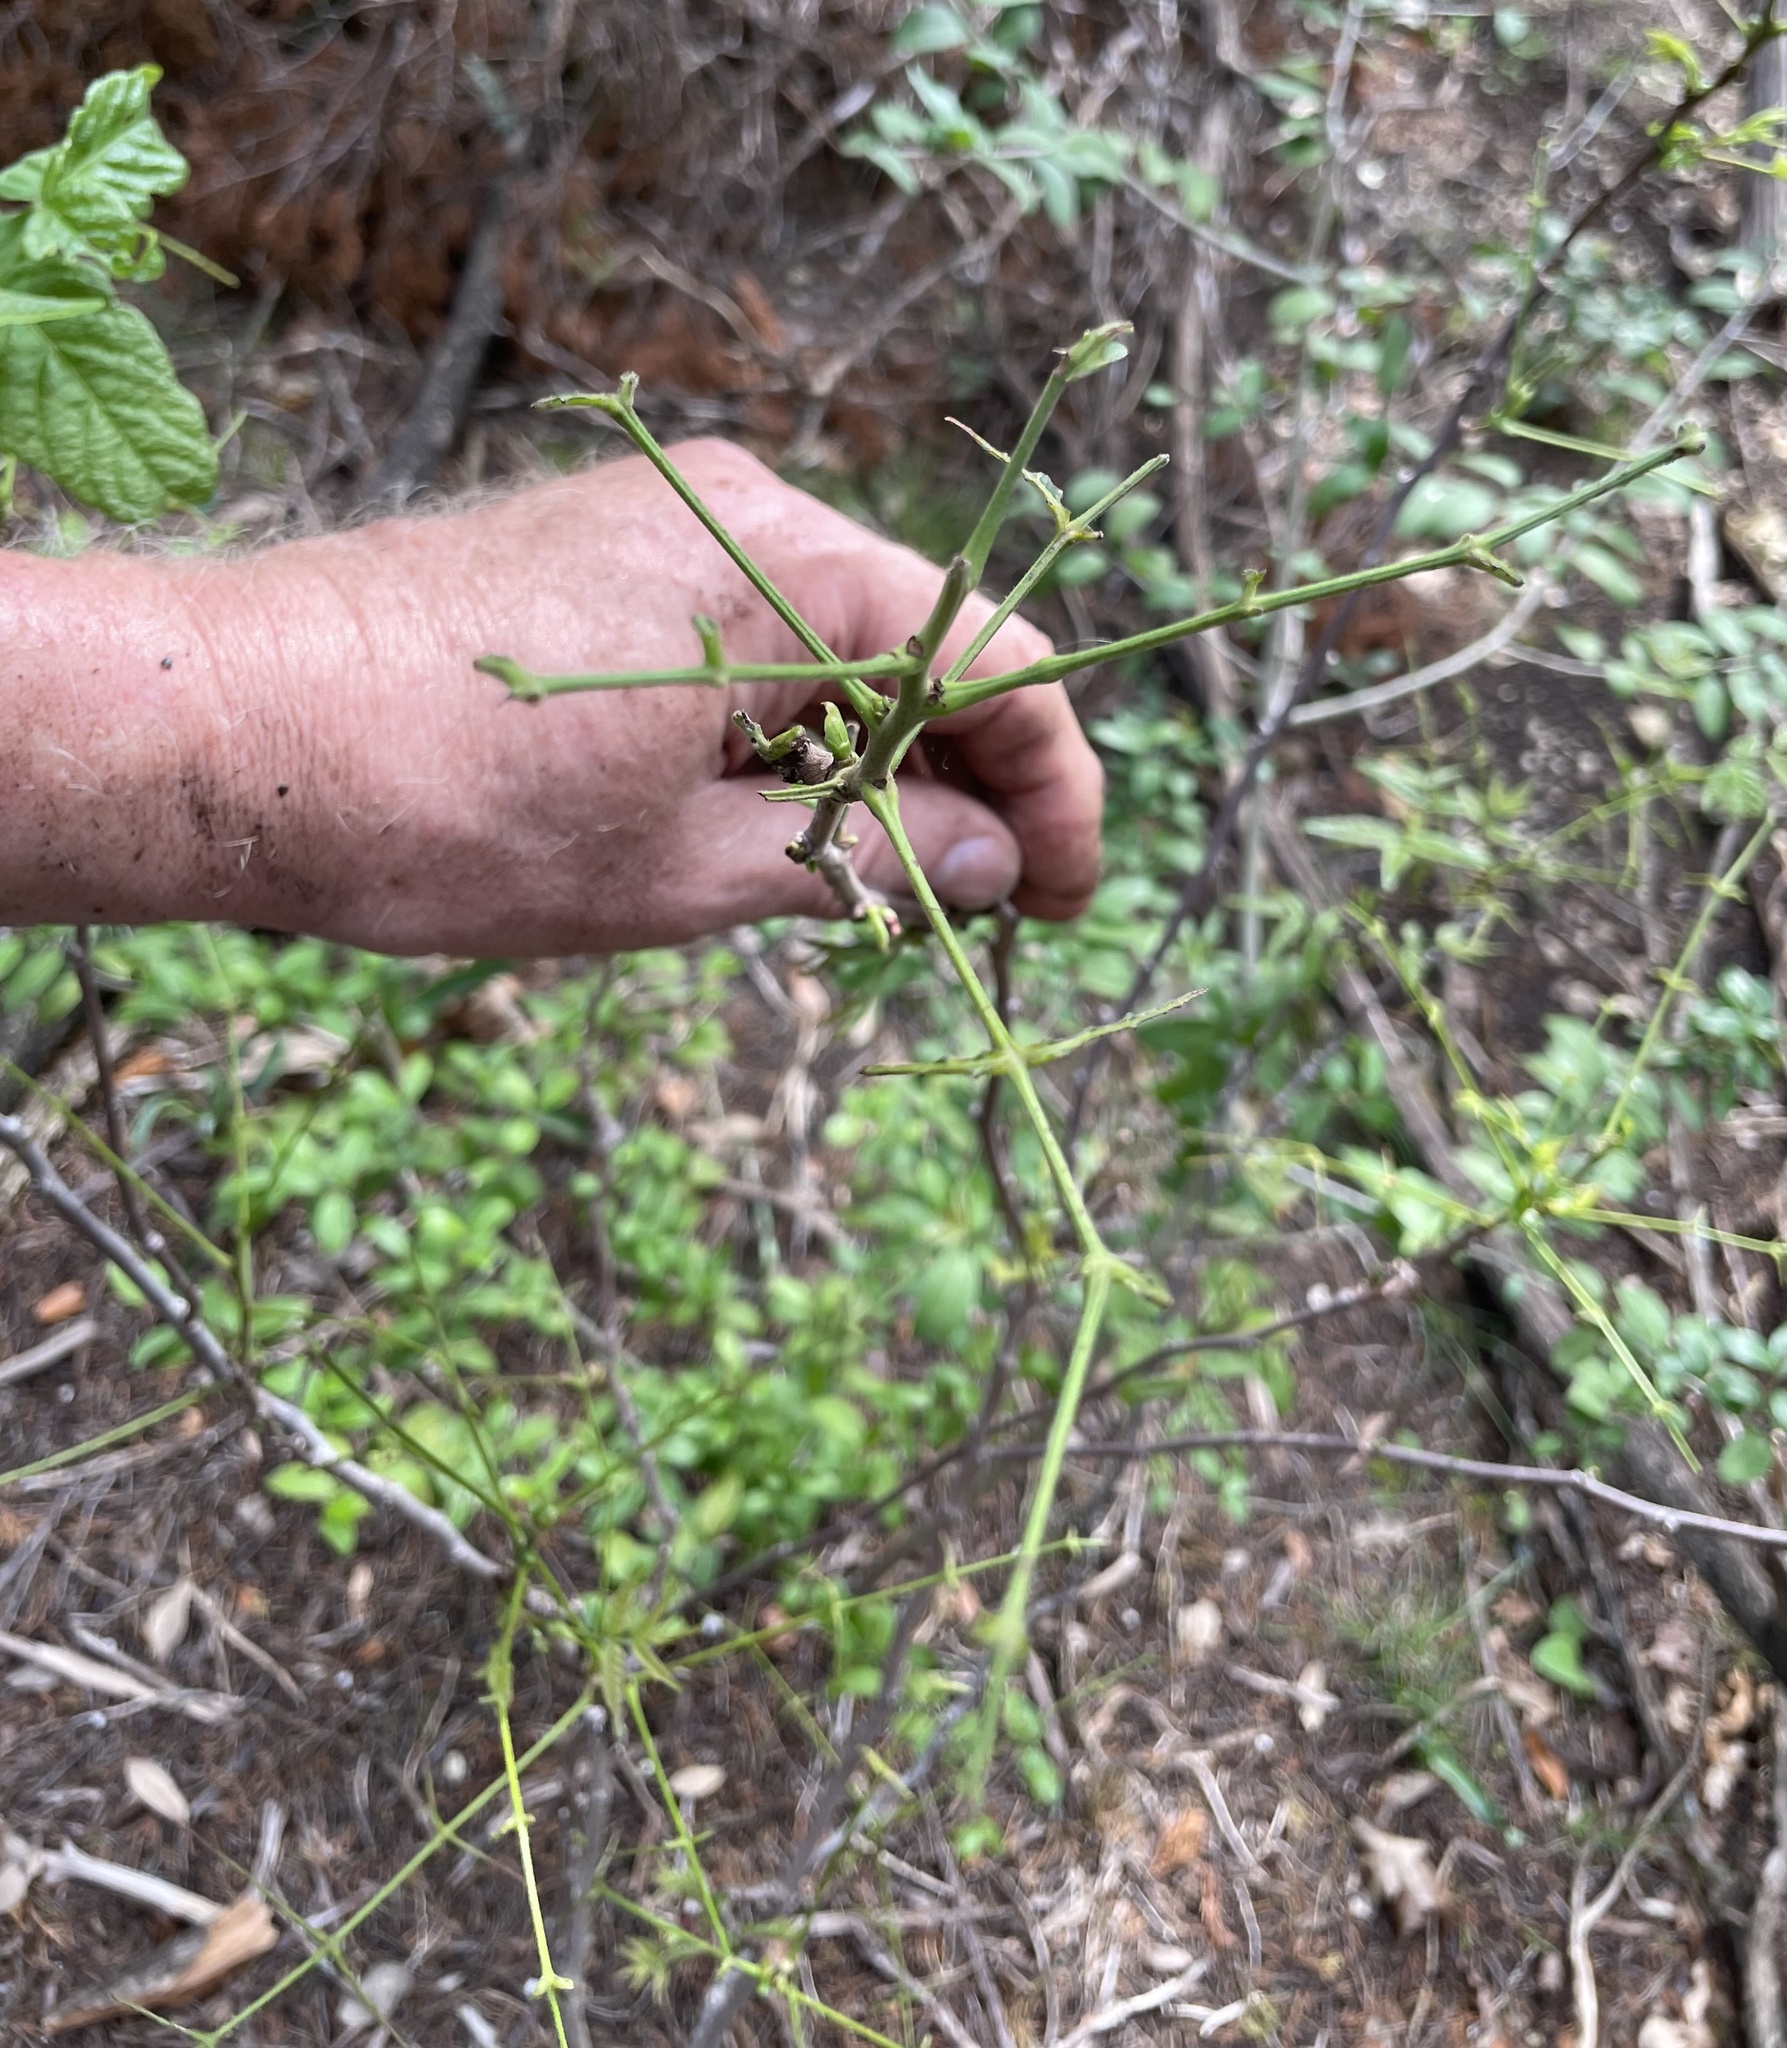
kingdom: Plantae
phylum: Tracheophyta
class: Magnoliopsida
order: Sapindales
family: Sapindaceae
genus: Ungnadia
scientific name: Ungnadia speciosa
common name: Texas-buckeye
